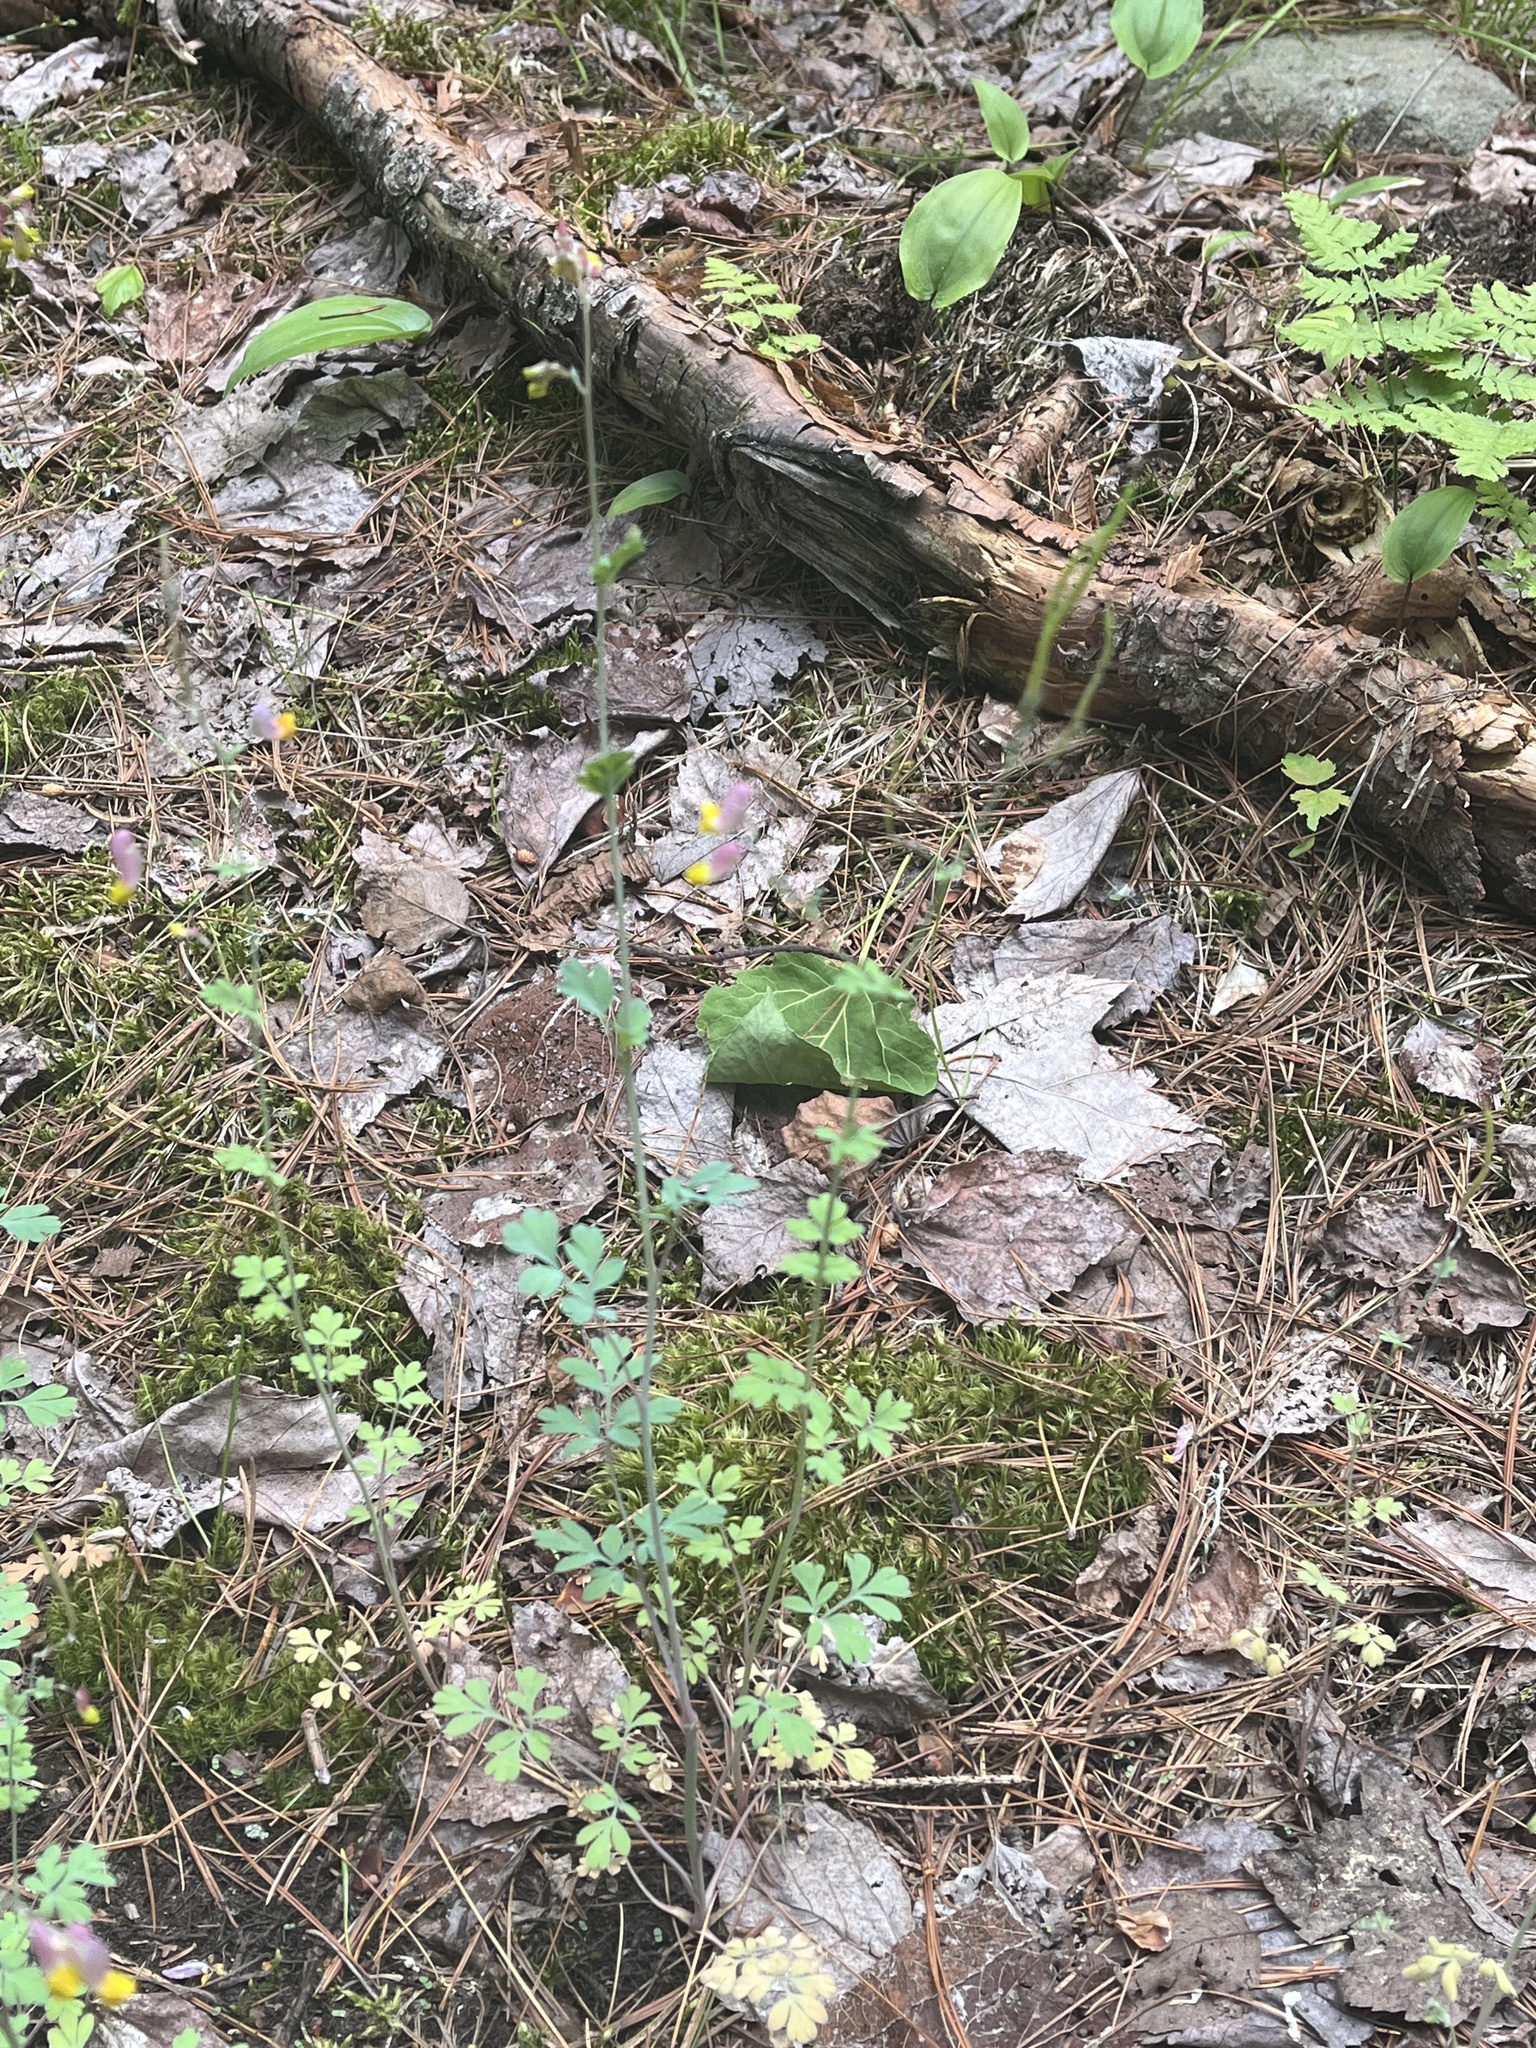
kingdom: Plantae
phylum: Tracheophyta
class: Magnoliopsida
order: Ranunculales
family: Papaveraceae
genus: Capnoides
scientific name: Capnoides sempervirens
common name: Rock harlequin
